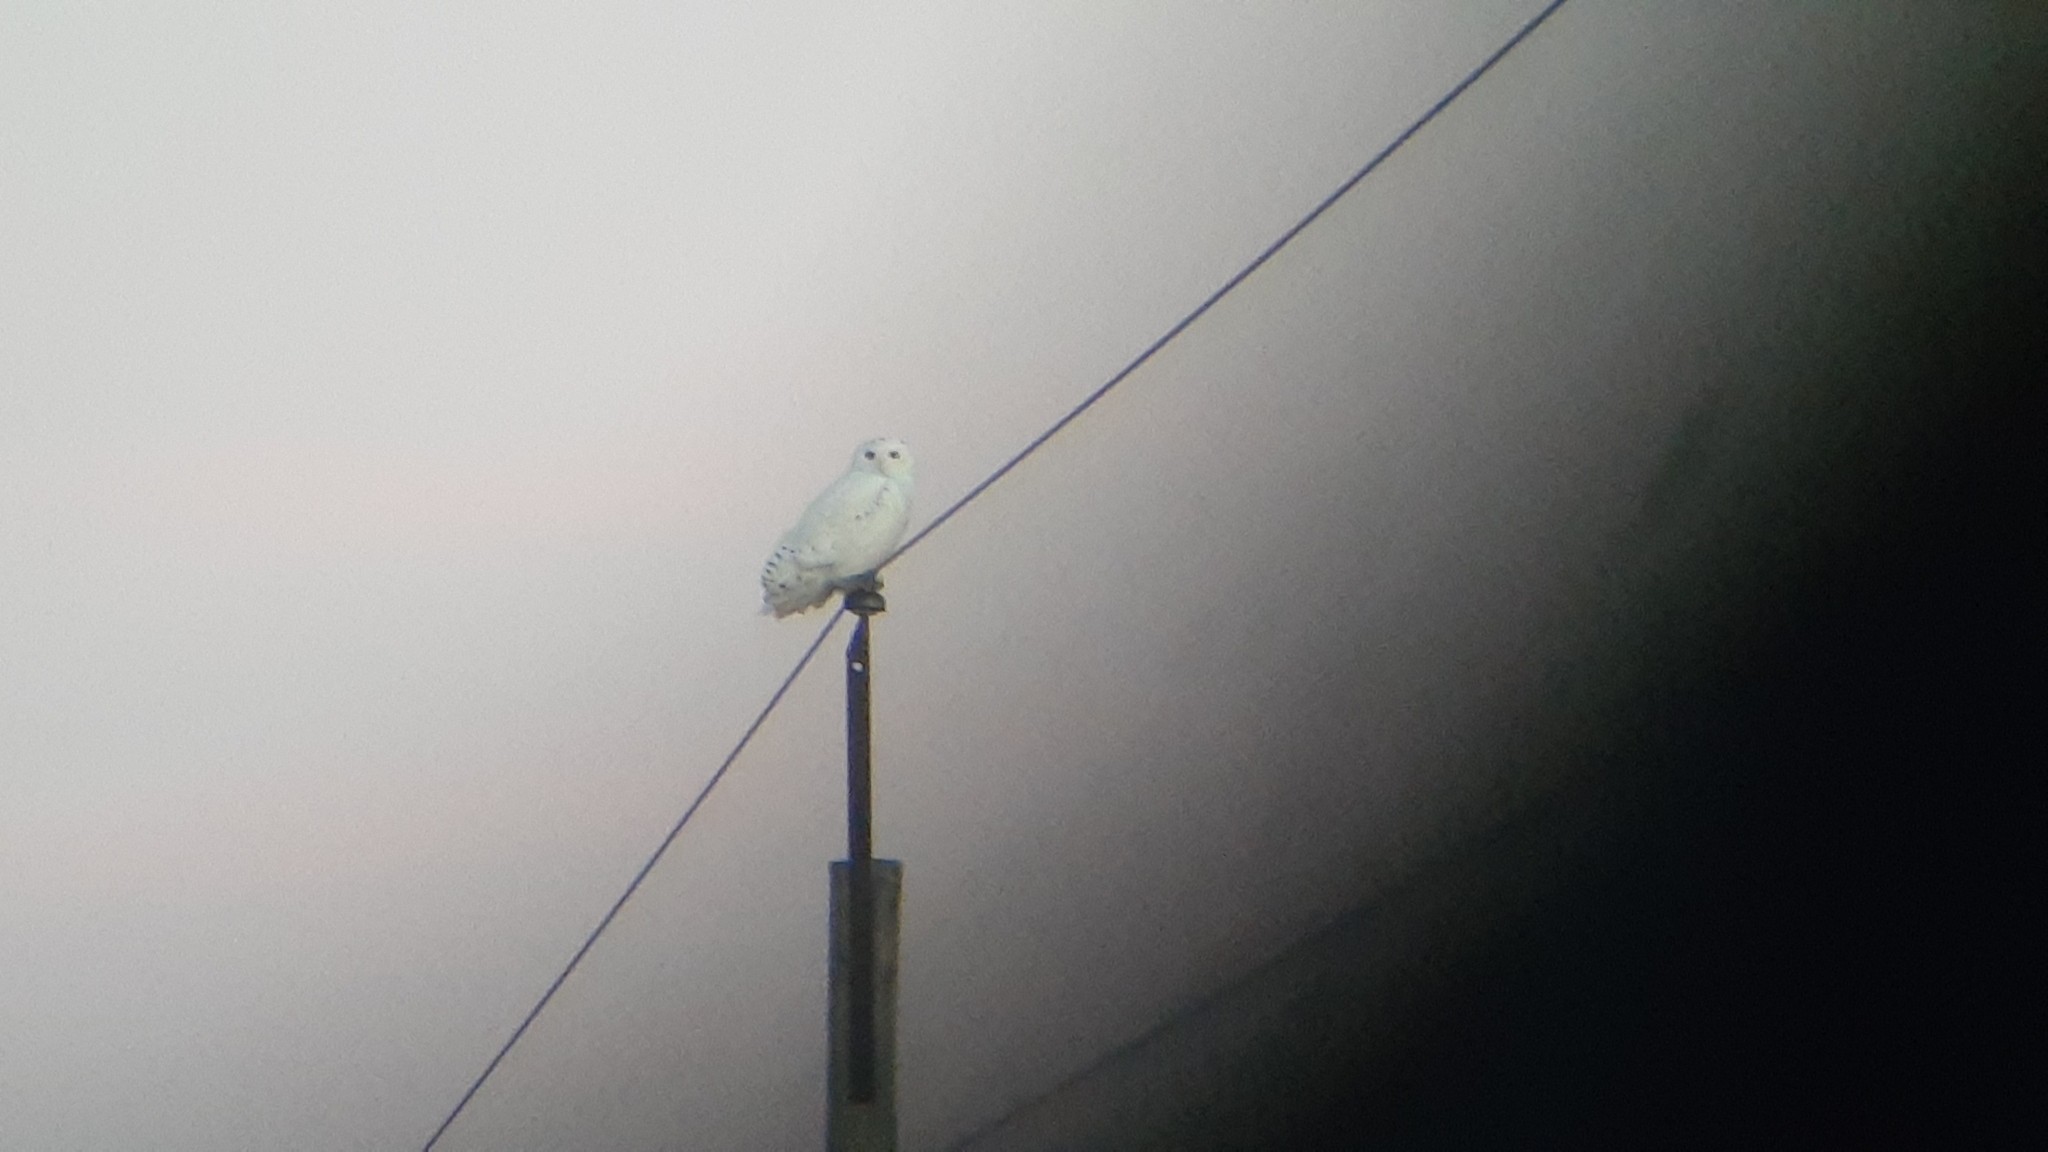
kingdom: Animalia
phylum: Chordata
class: Aves
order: Strigiformes
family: Strigidae
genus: Bubo
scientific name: Bubo scandiacus
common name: Snowy owl
